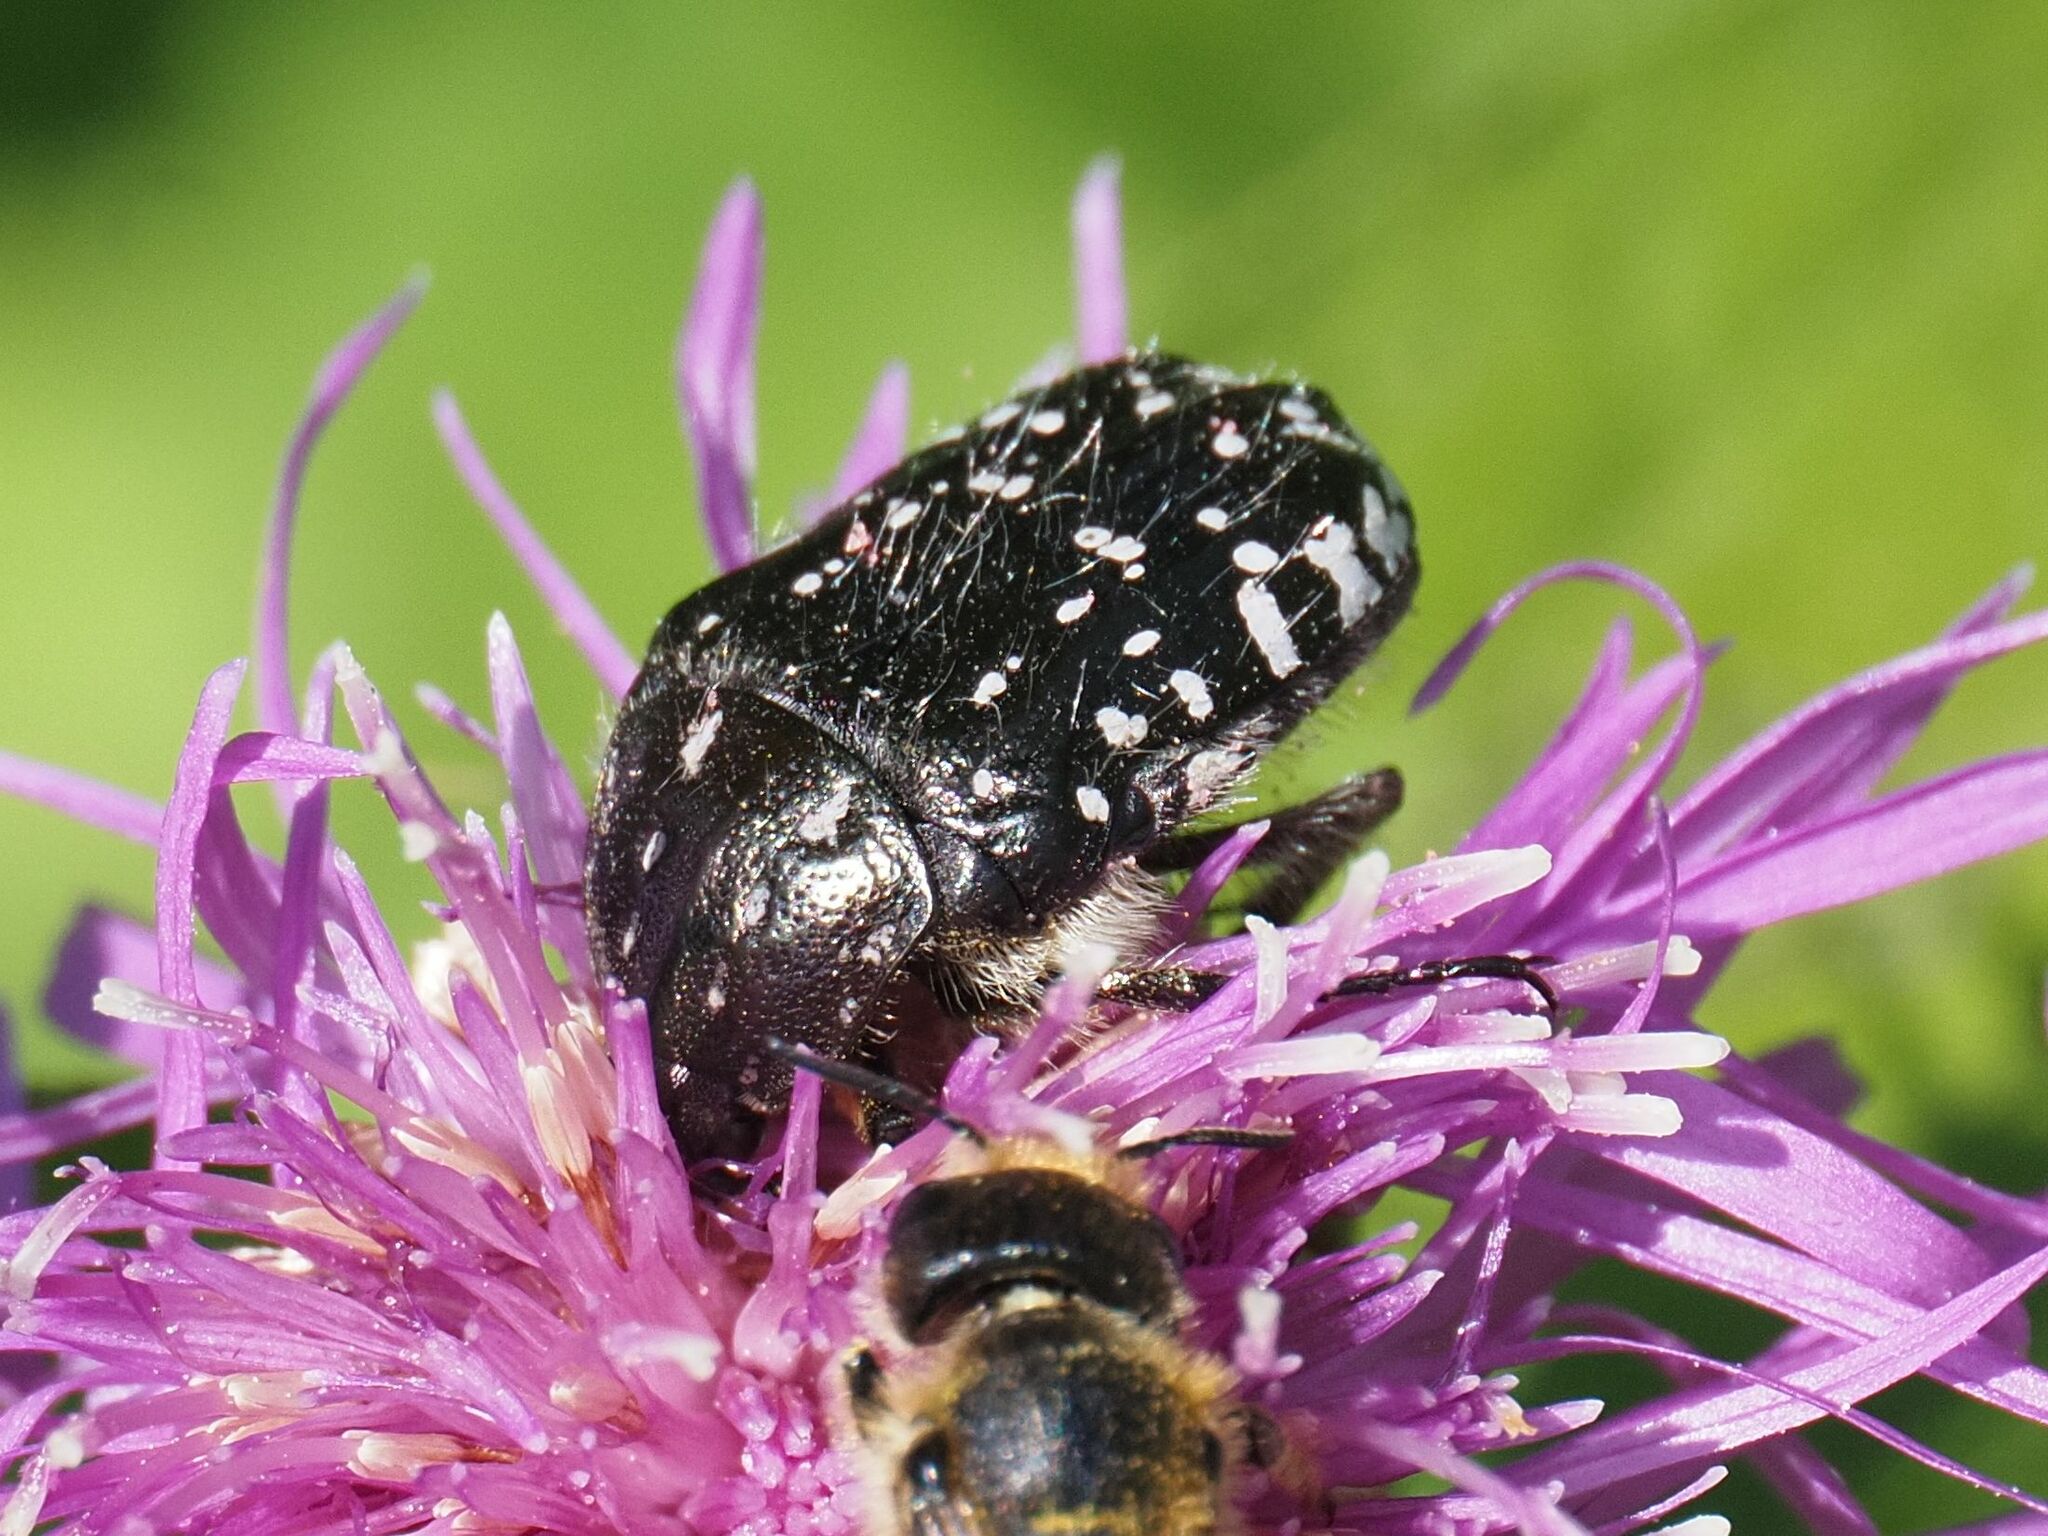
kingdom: Animalia
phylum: Arthropoda
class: Insecta
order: Coleoptera
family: Scarabaeidae
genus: Oxythyrea
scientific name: Oxythyrea funesta
